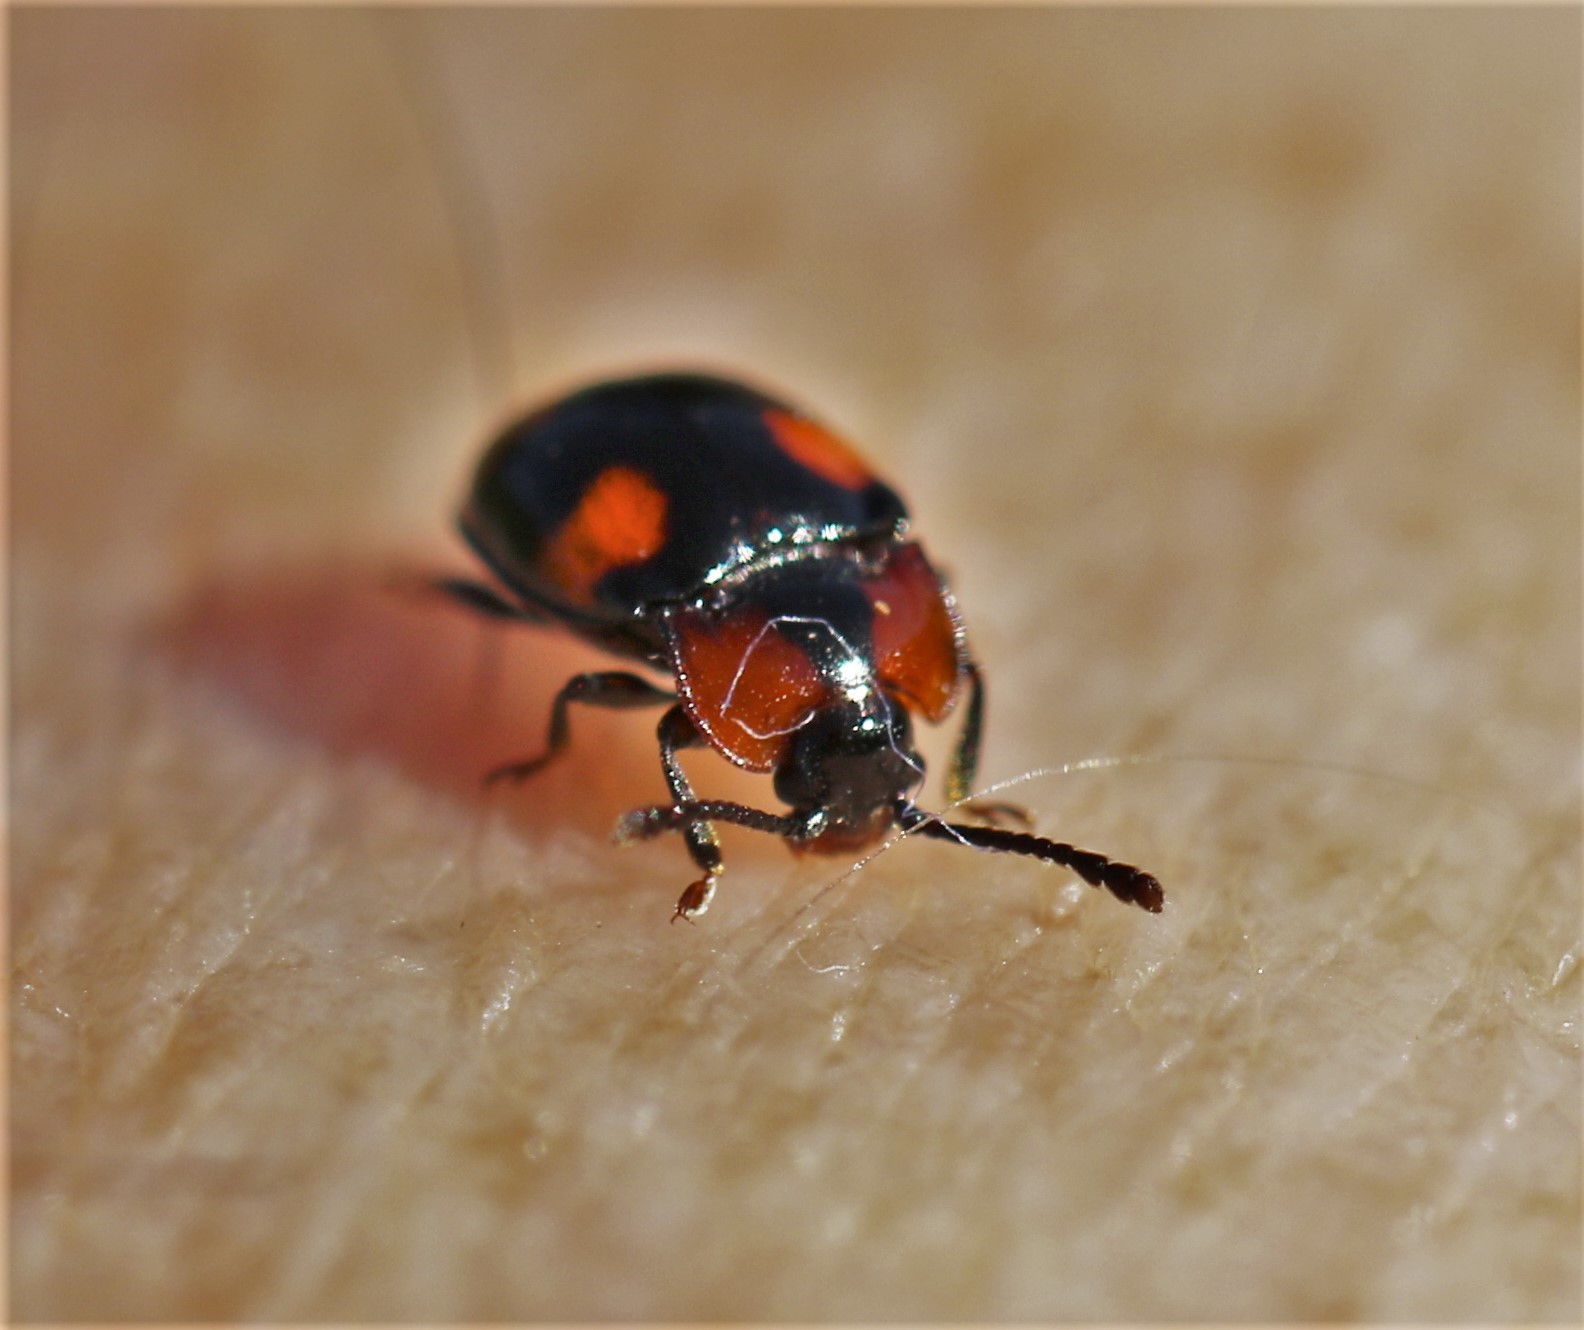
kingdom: Animalia
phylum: Arthropoda
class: Insecta
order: Coleoptera
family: Endomychidae
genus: Mycetina
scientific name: Mycetina perpulchra
